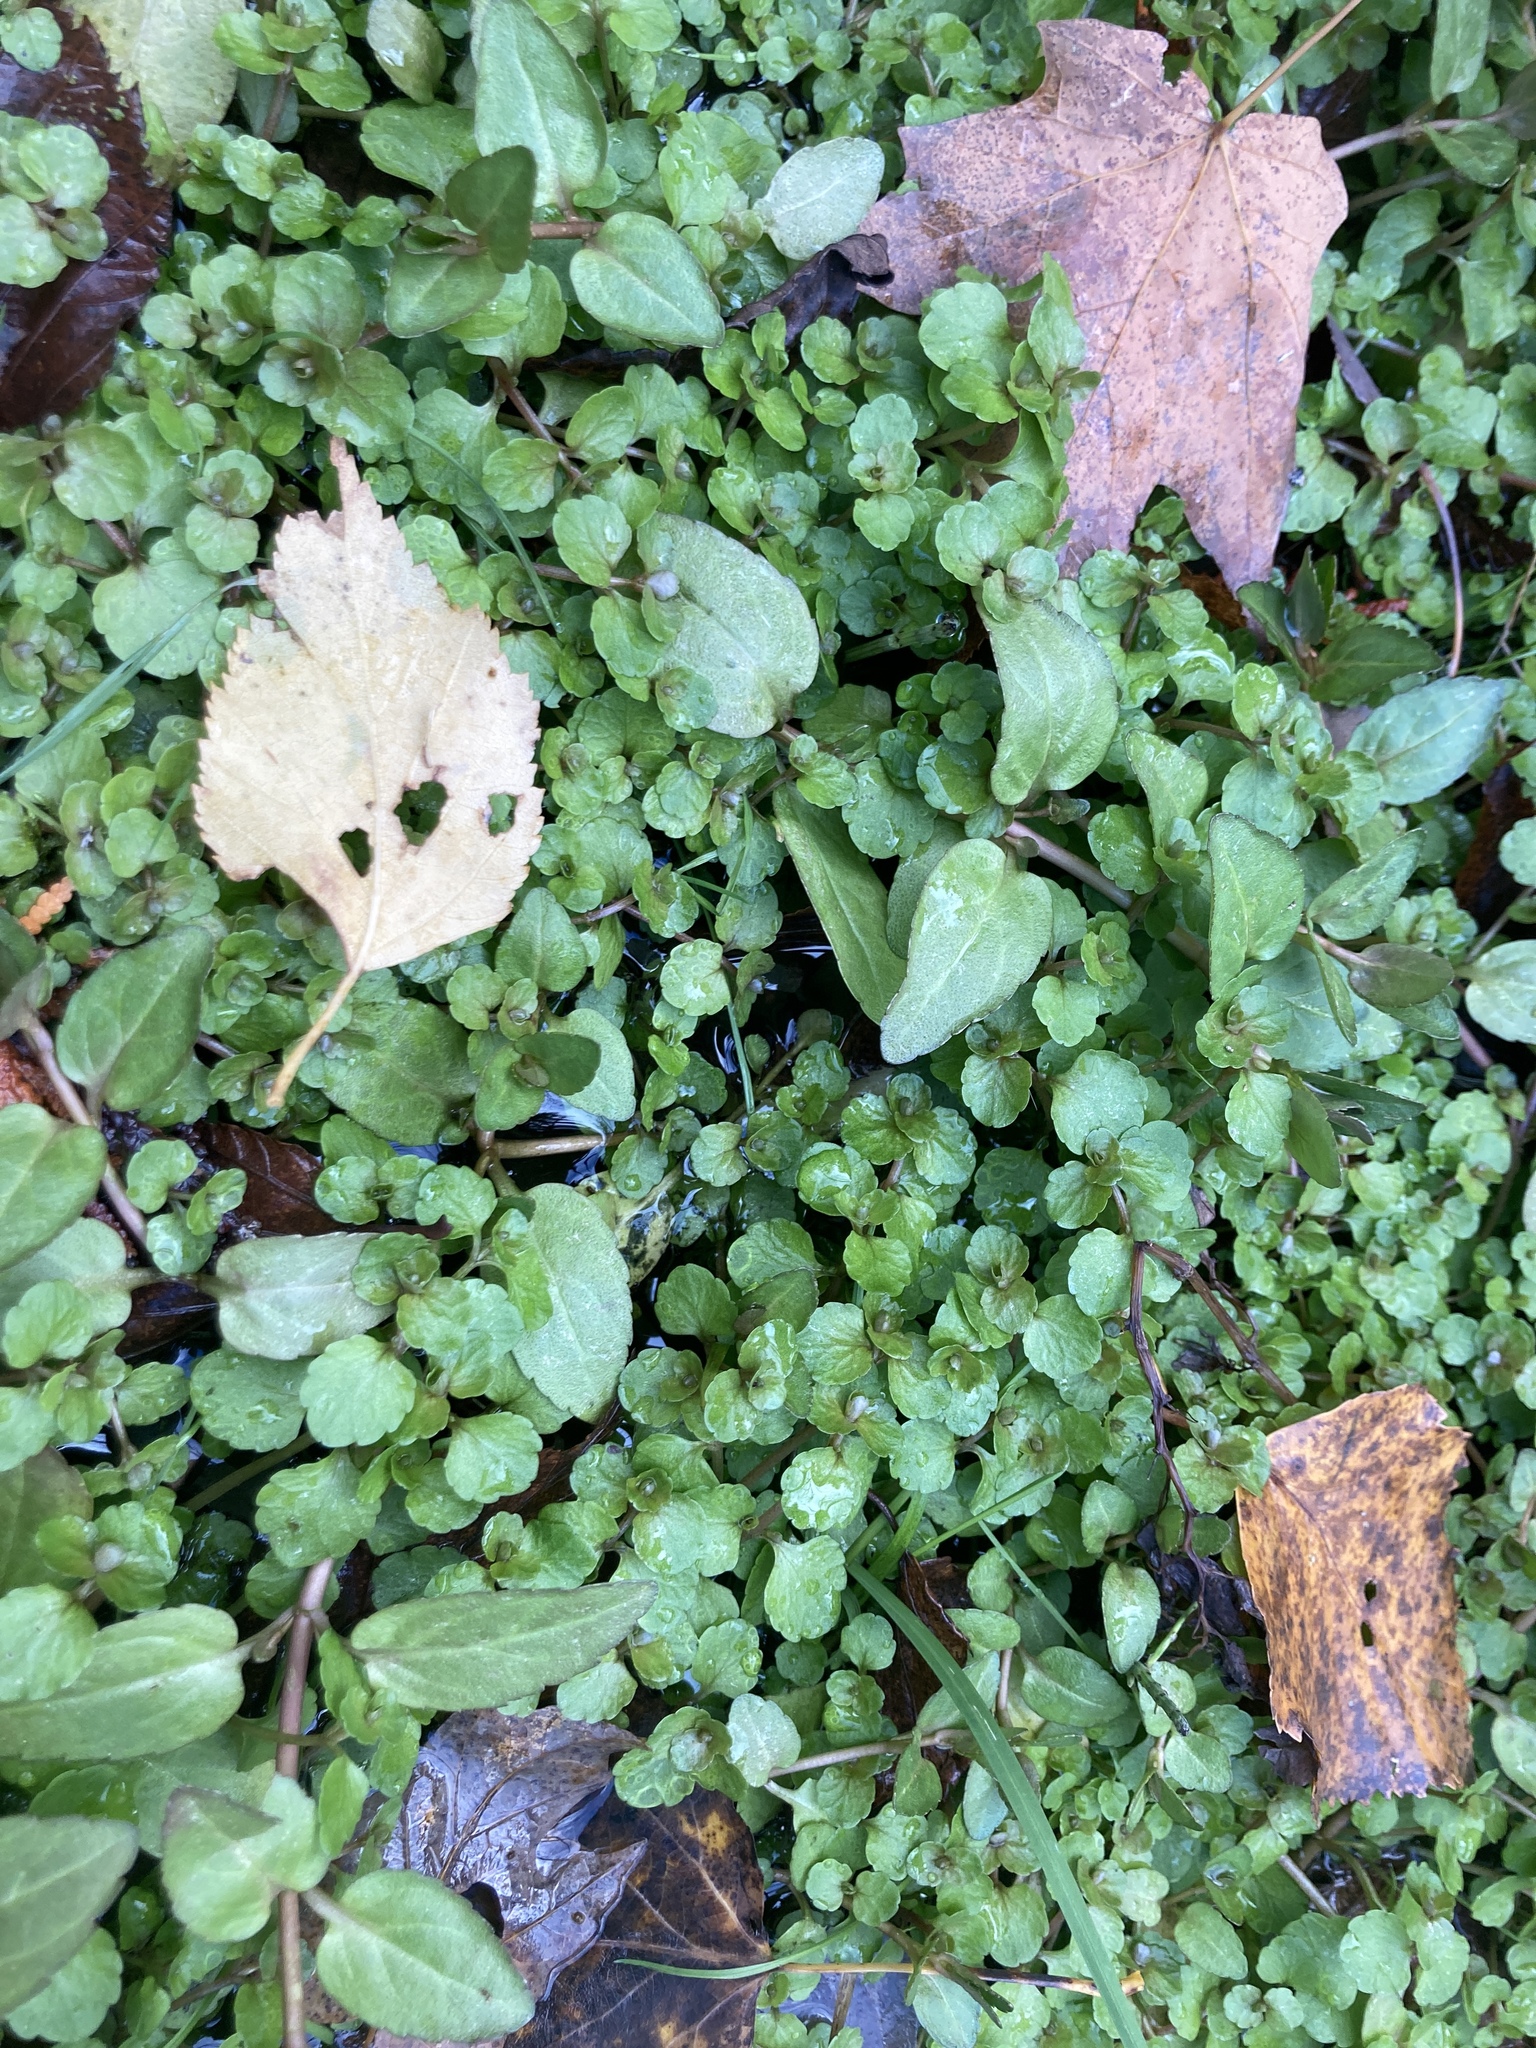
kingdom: Plantae
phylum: Tracheophyta
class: Magnoliopsida
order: Saxifragales
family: Saxifragaceae
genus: Chrysosplenium
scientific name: Chrysosplenium americanum
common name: American golden-saxifrage
